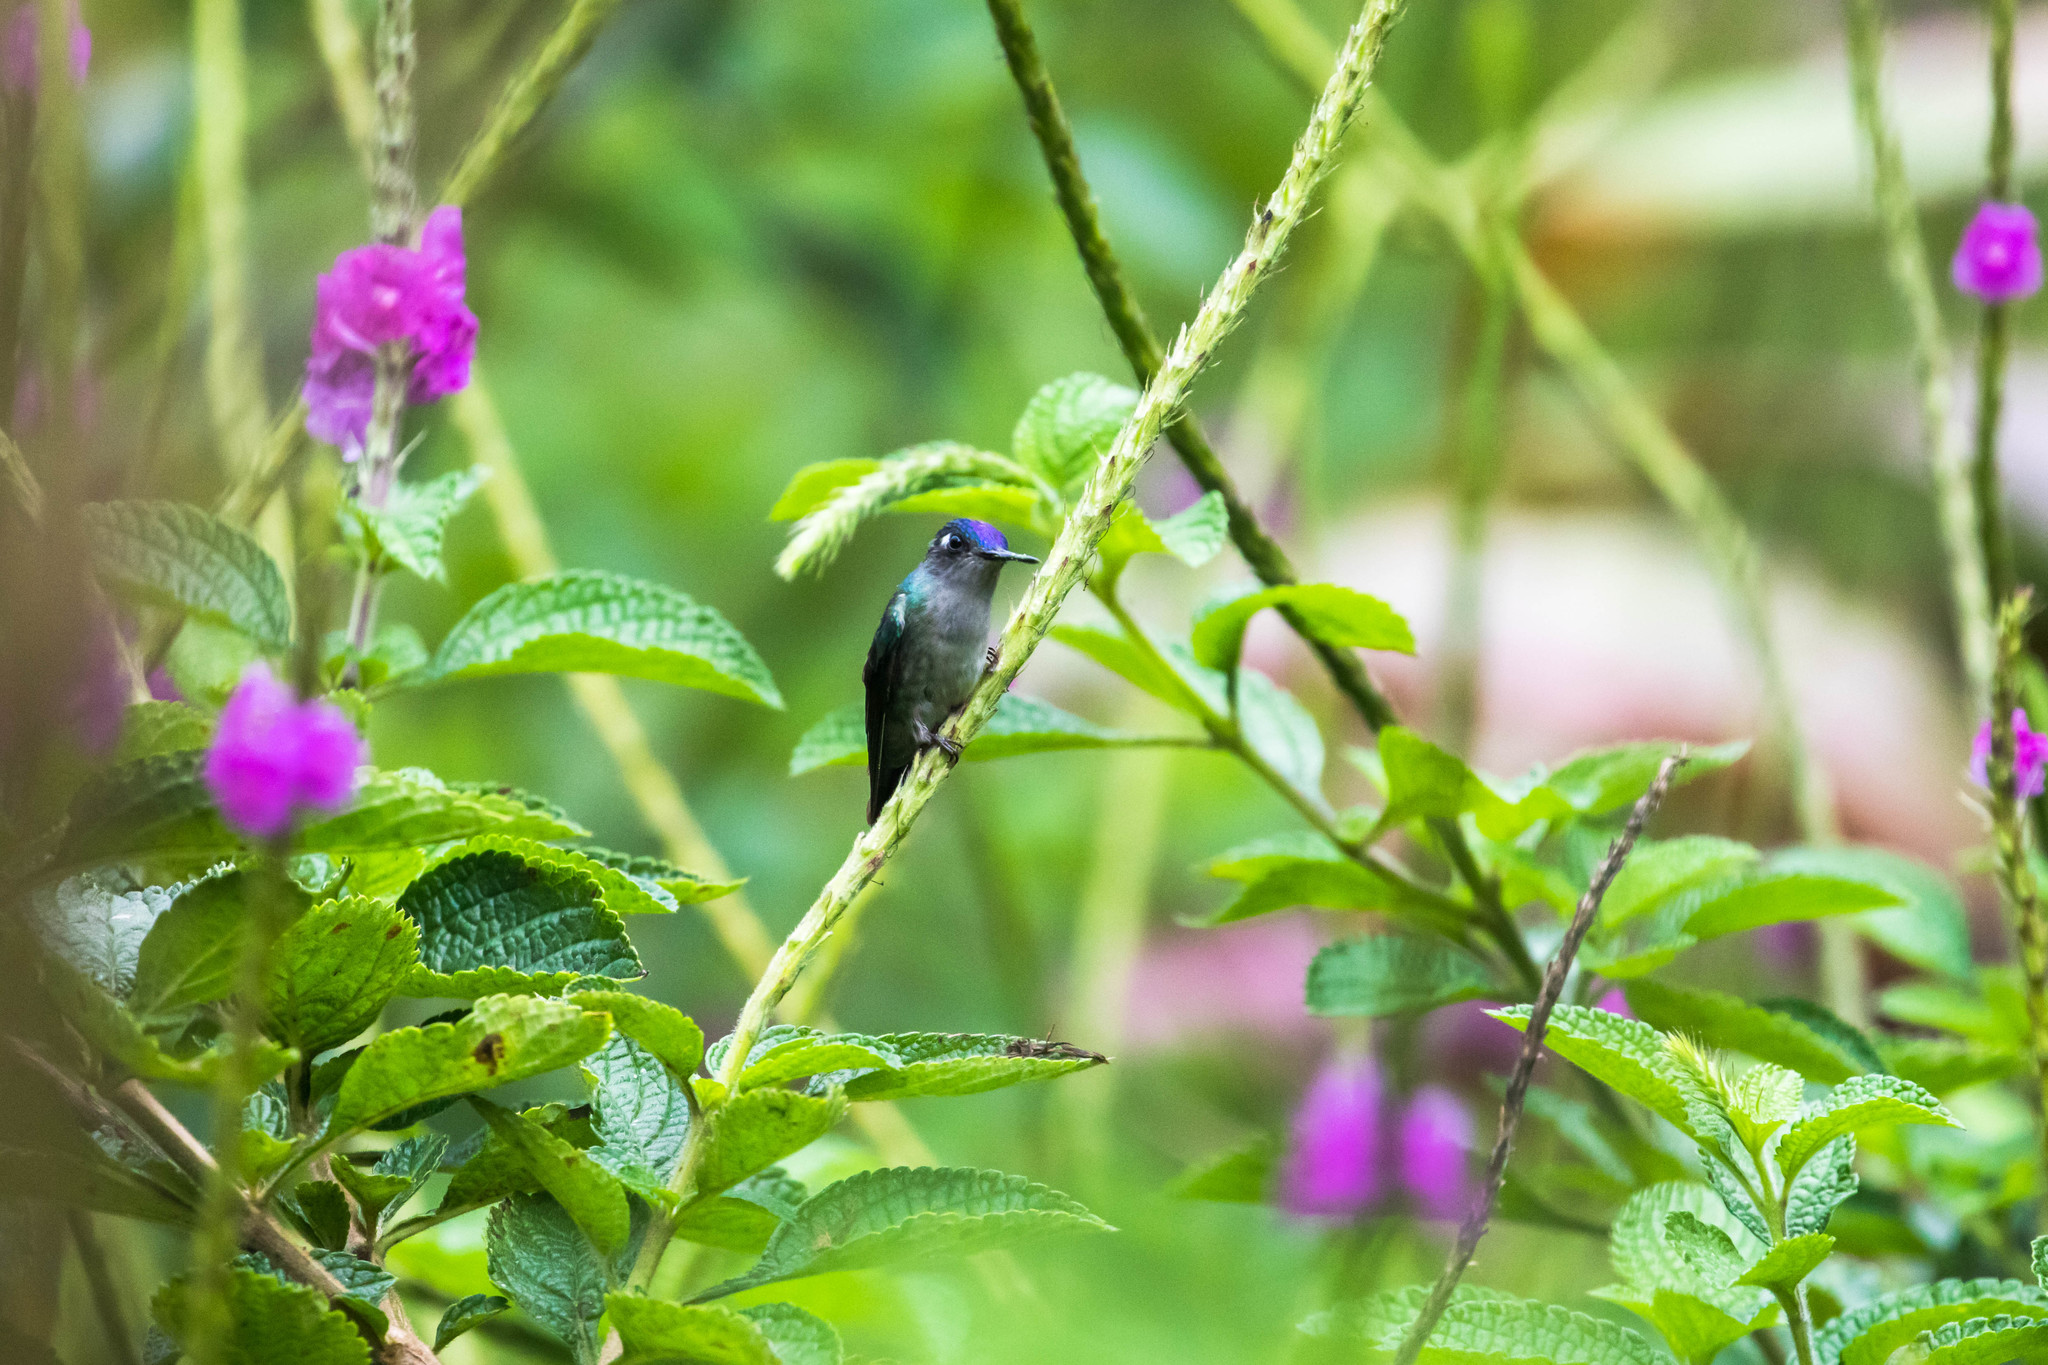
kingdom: Animalia
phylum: Chordata
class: Aves
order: Apodiformes
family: Trochilidae
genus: Klais
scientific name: Klais guimeti
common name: Violet-headed hummingbird
